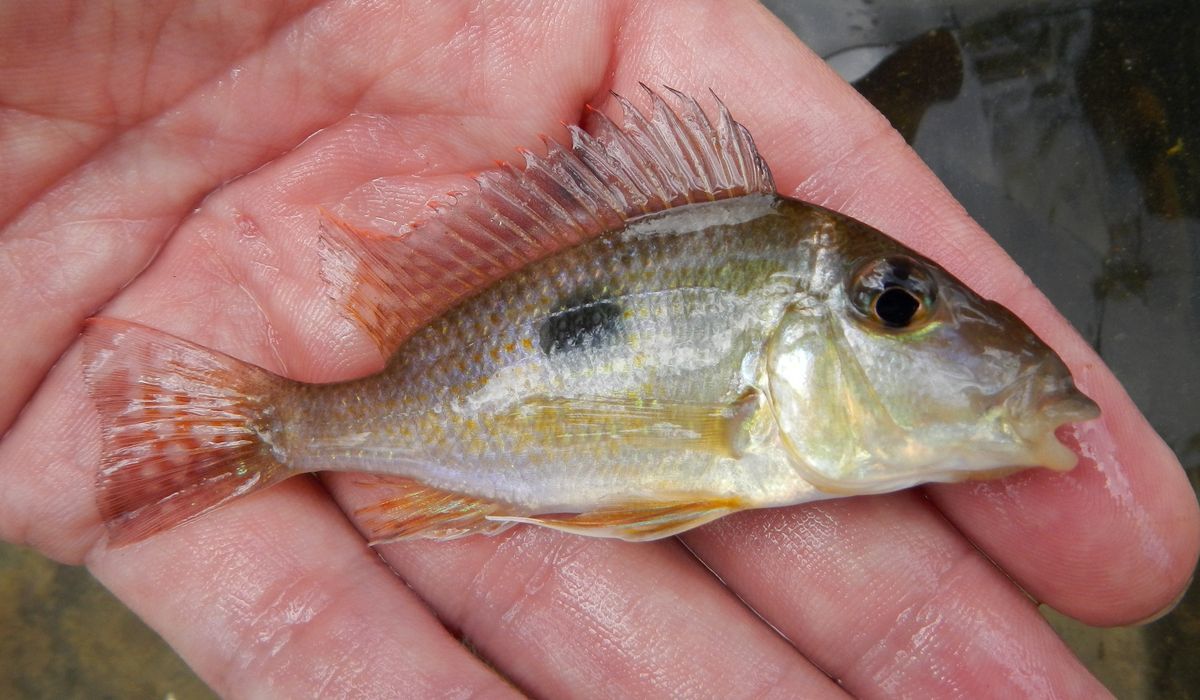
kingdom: Animalia
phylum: Chordata
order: Perciformes
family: Cichlidae
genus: Geophagus
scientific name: Geophagus camopiensis
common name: Oyapock eartheater
